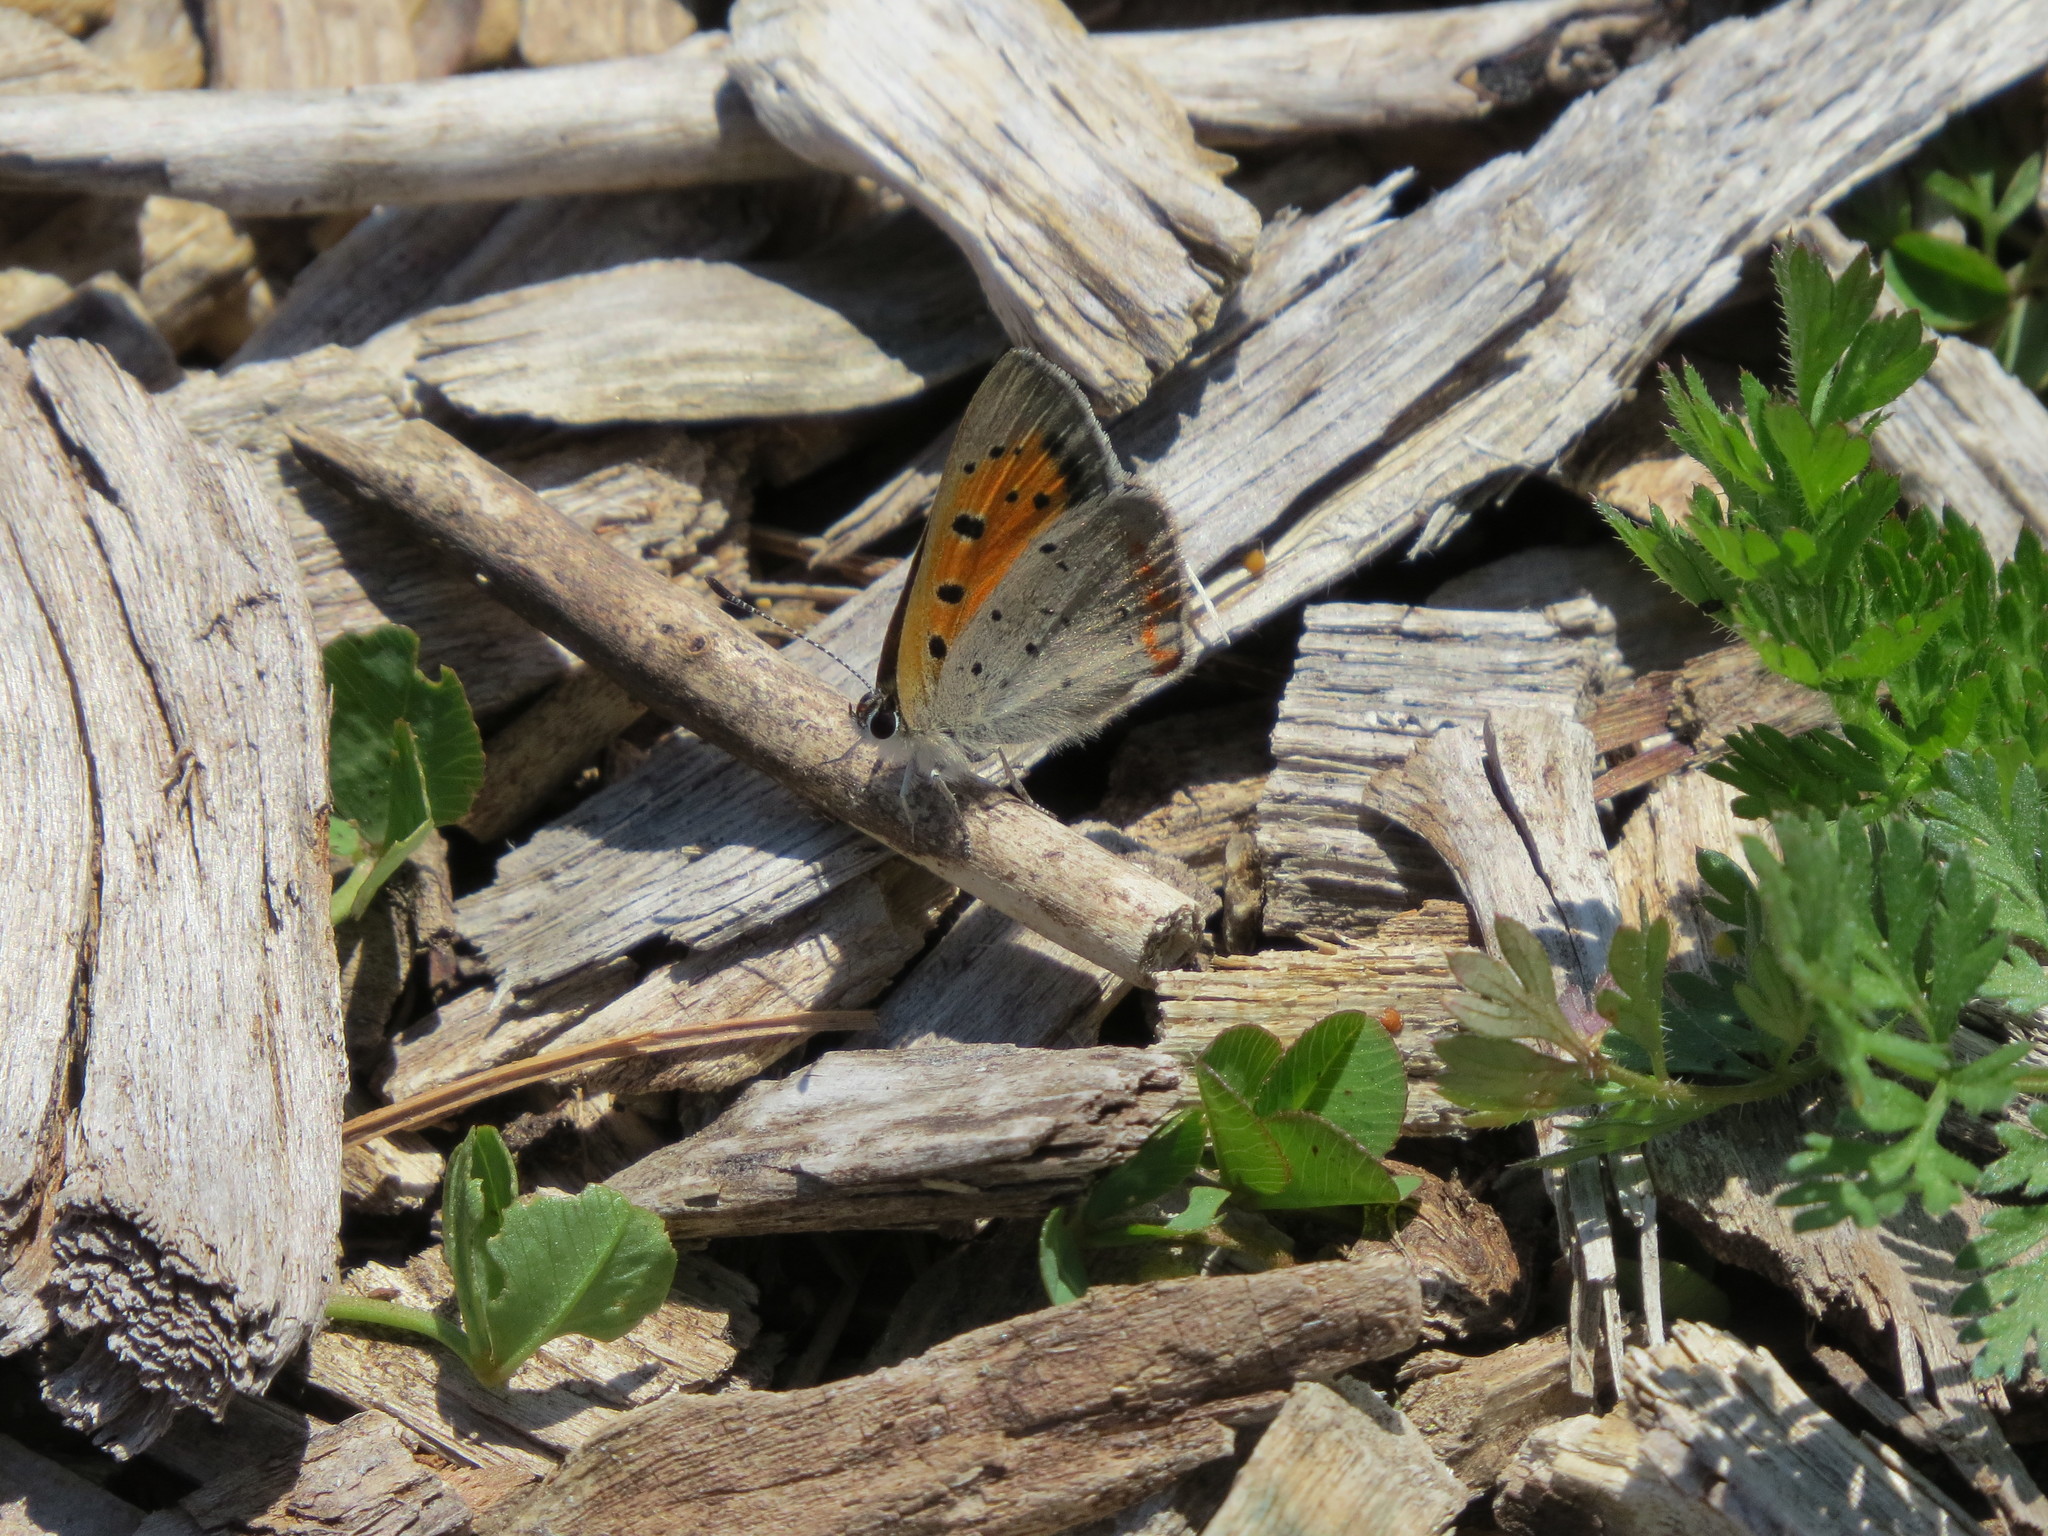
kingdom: Animalia
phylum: Arthropoda
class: Insecta
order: Lepidoptera
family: Lycaenidae
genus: Lycaena
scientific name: Lycaena hypophlaeas
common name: American copper
